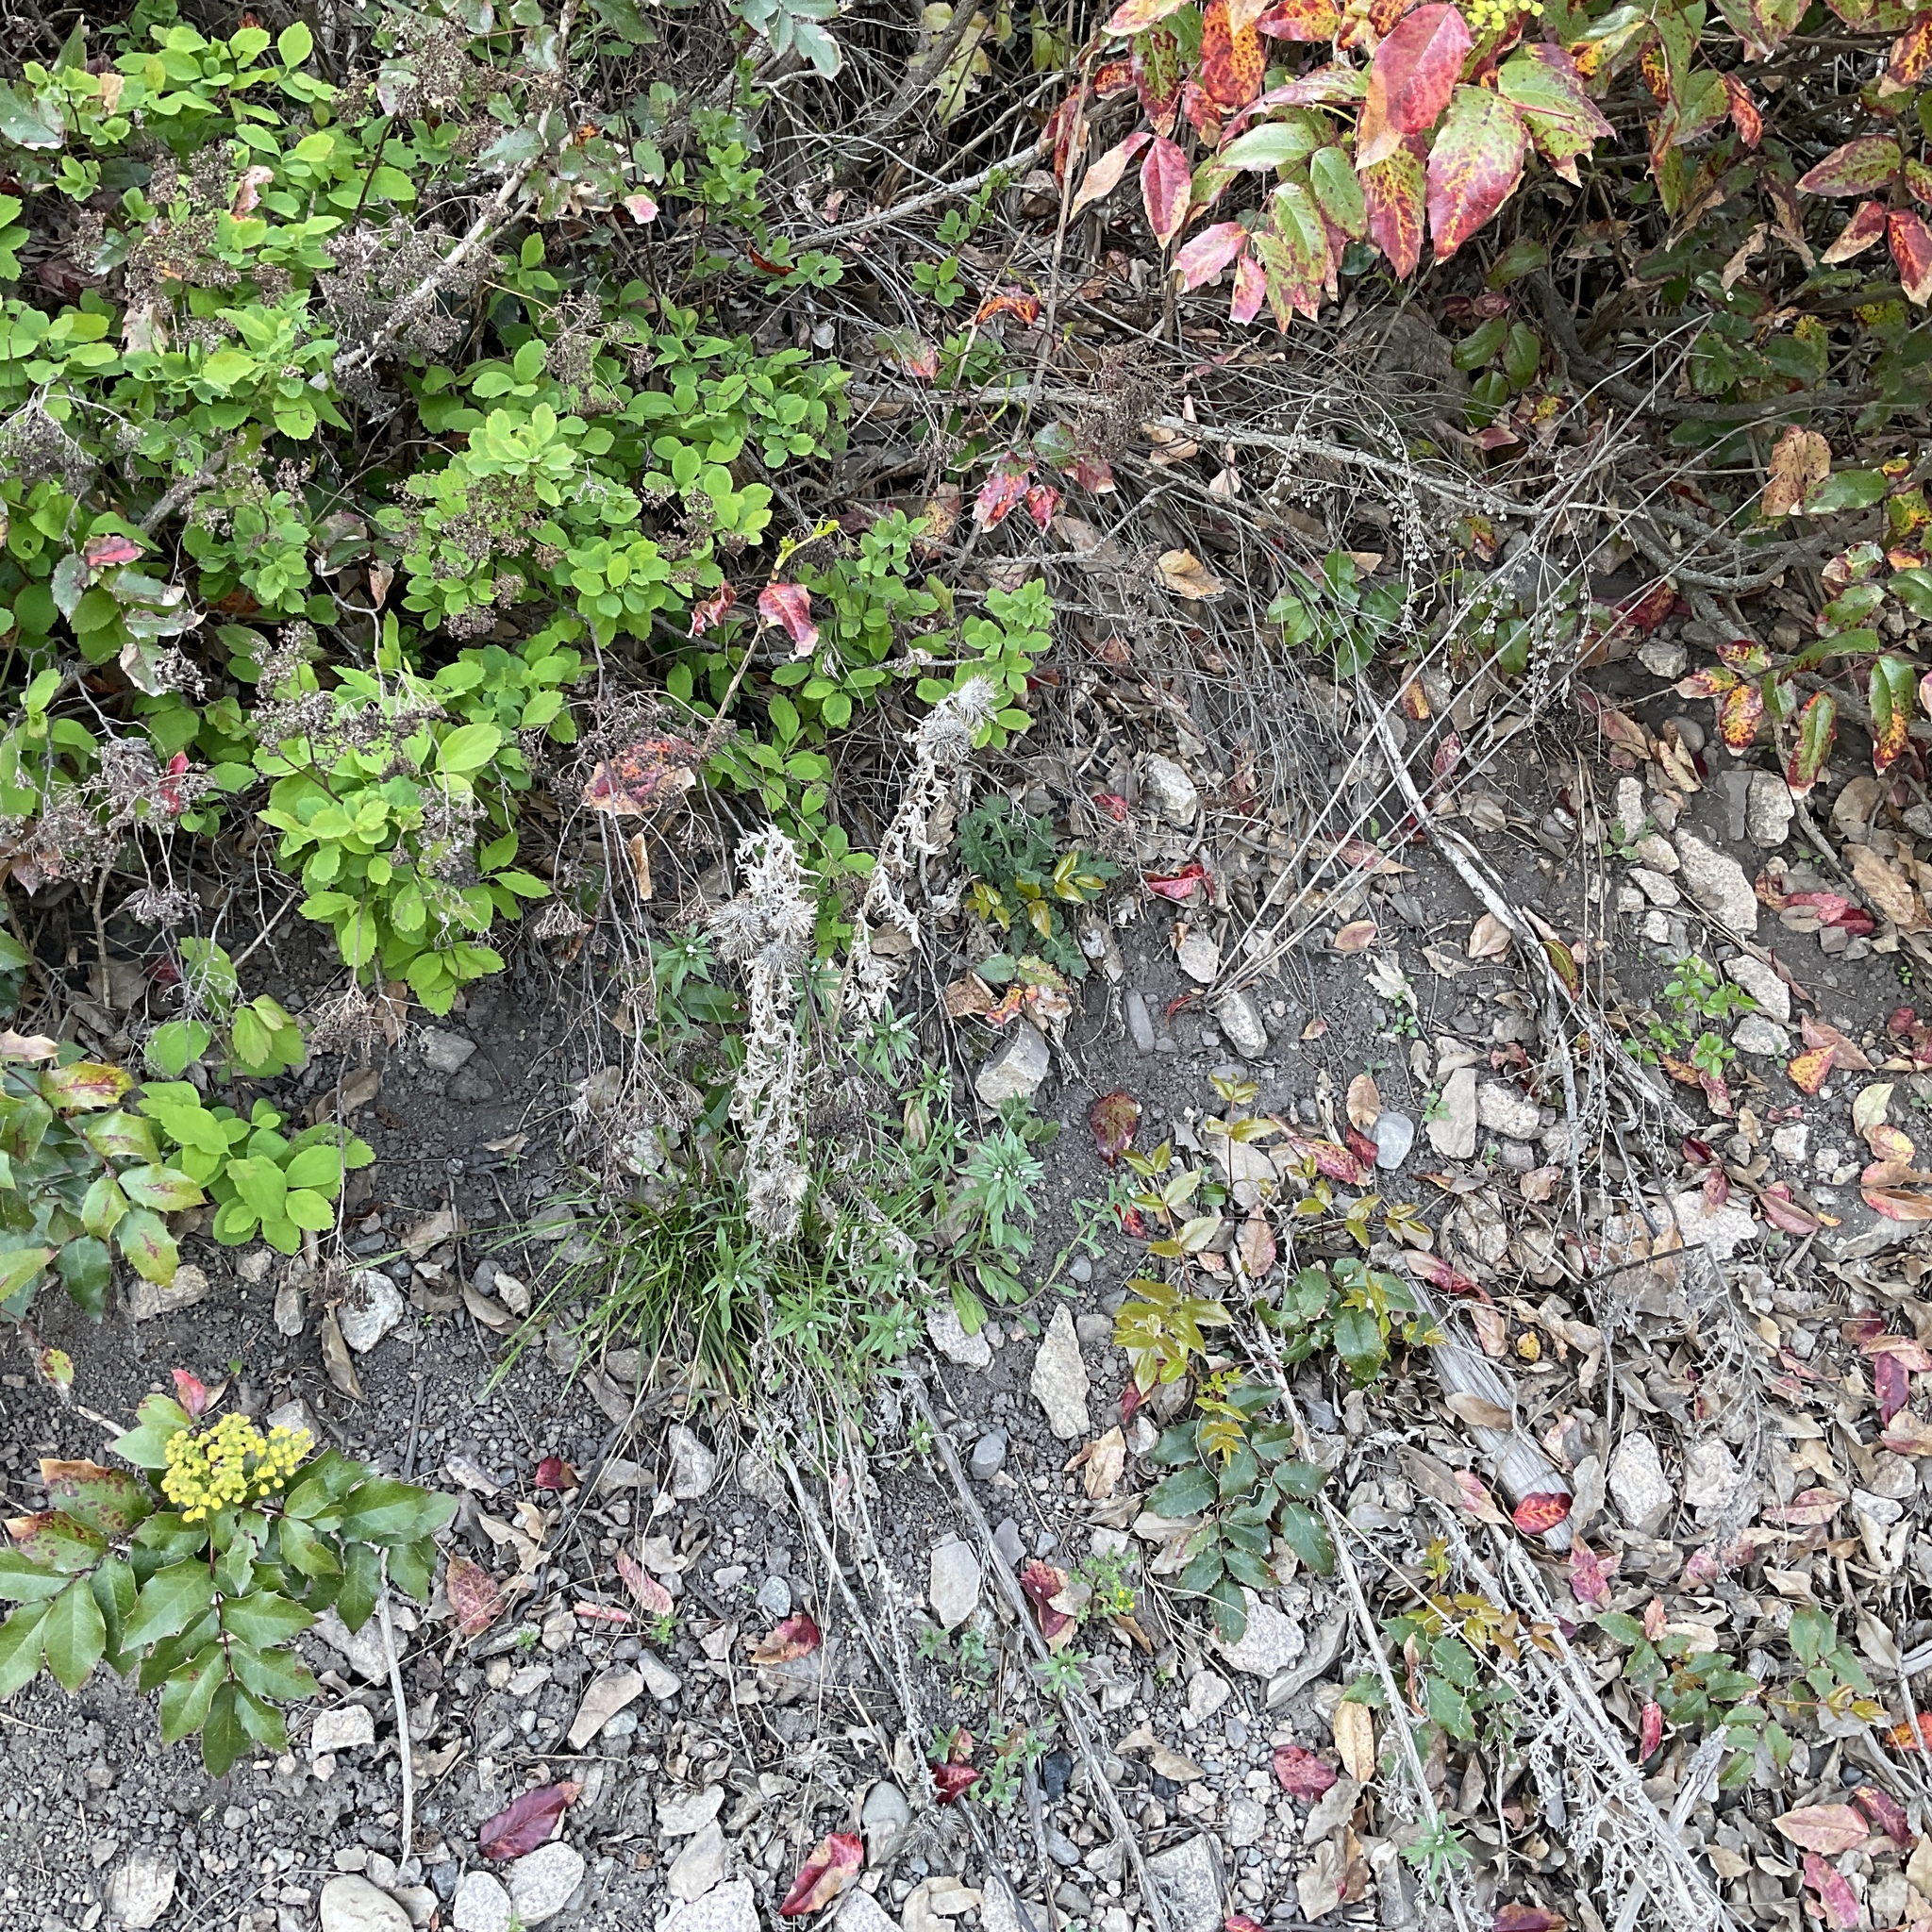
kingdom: Plantae
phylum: Tracheophyta
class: Magnoliopsida
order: Asterales
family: Asteraceae
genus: Cirsium
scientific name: Cirsium vulgare
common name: Bull thistle
